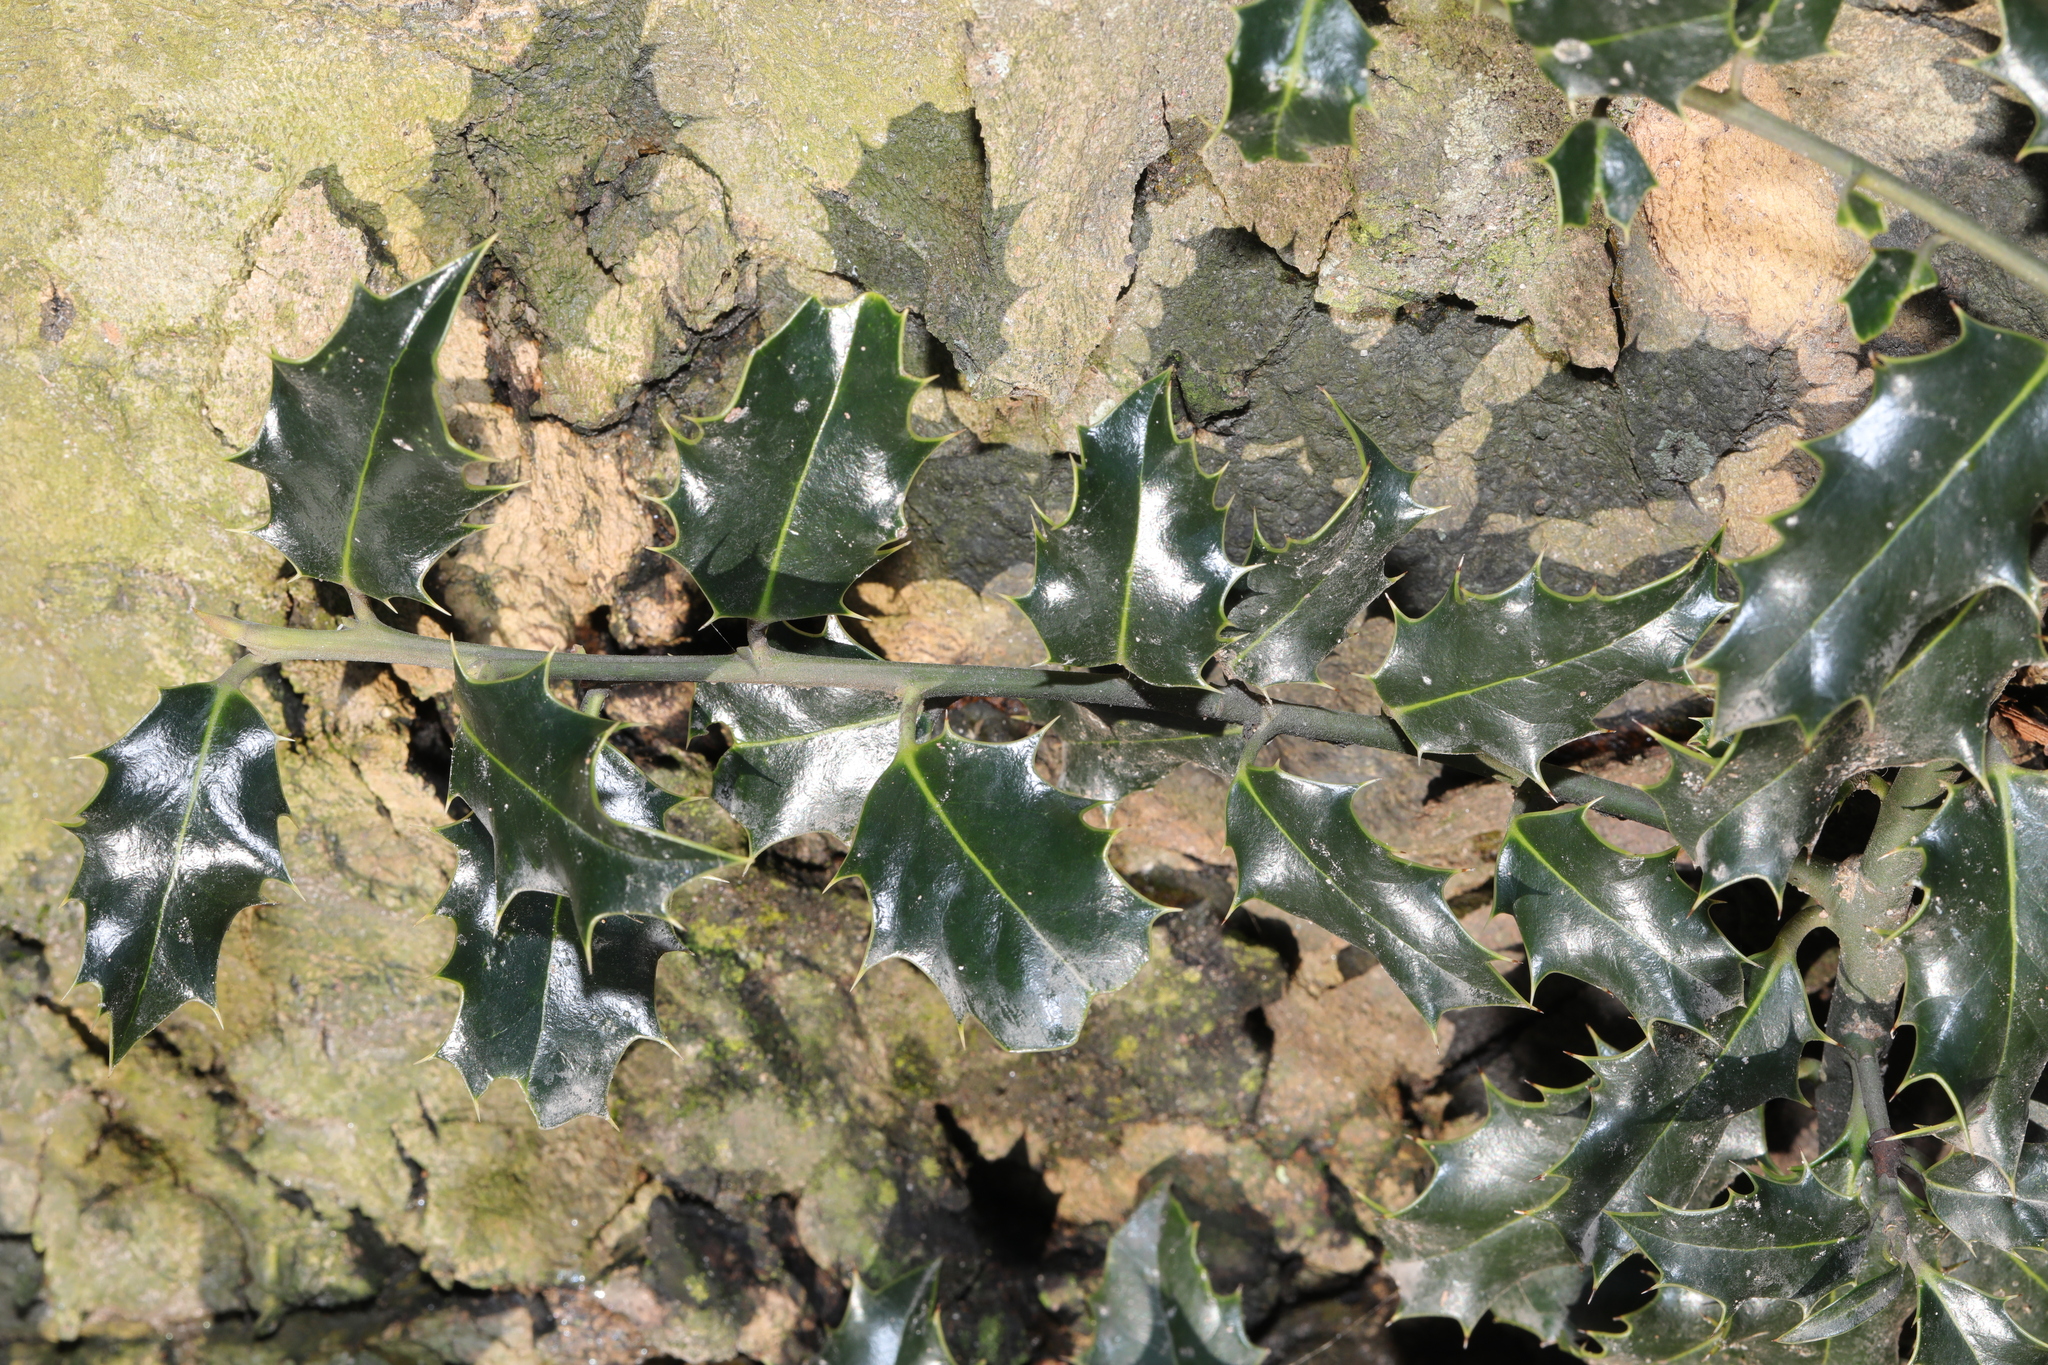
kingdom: Plantae
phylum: Tracheophyta
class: Magnoliopsida
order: Aquifoliales
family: Aquifoliaceae
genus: Ilex
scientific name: Ilex aquifolium
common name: English holly
